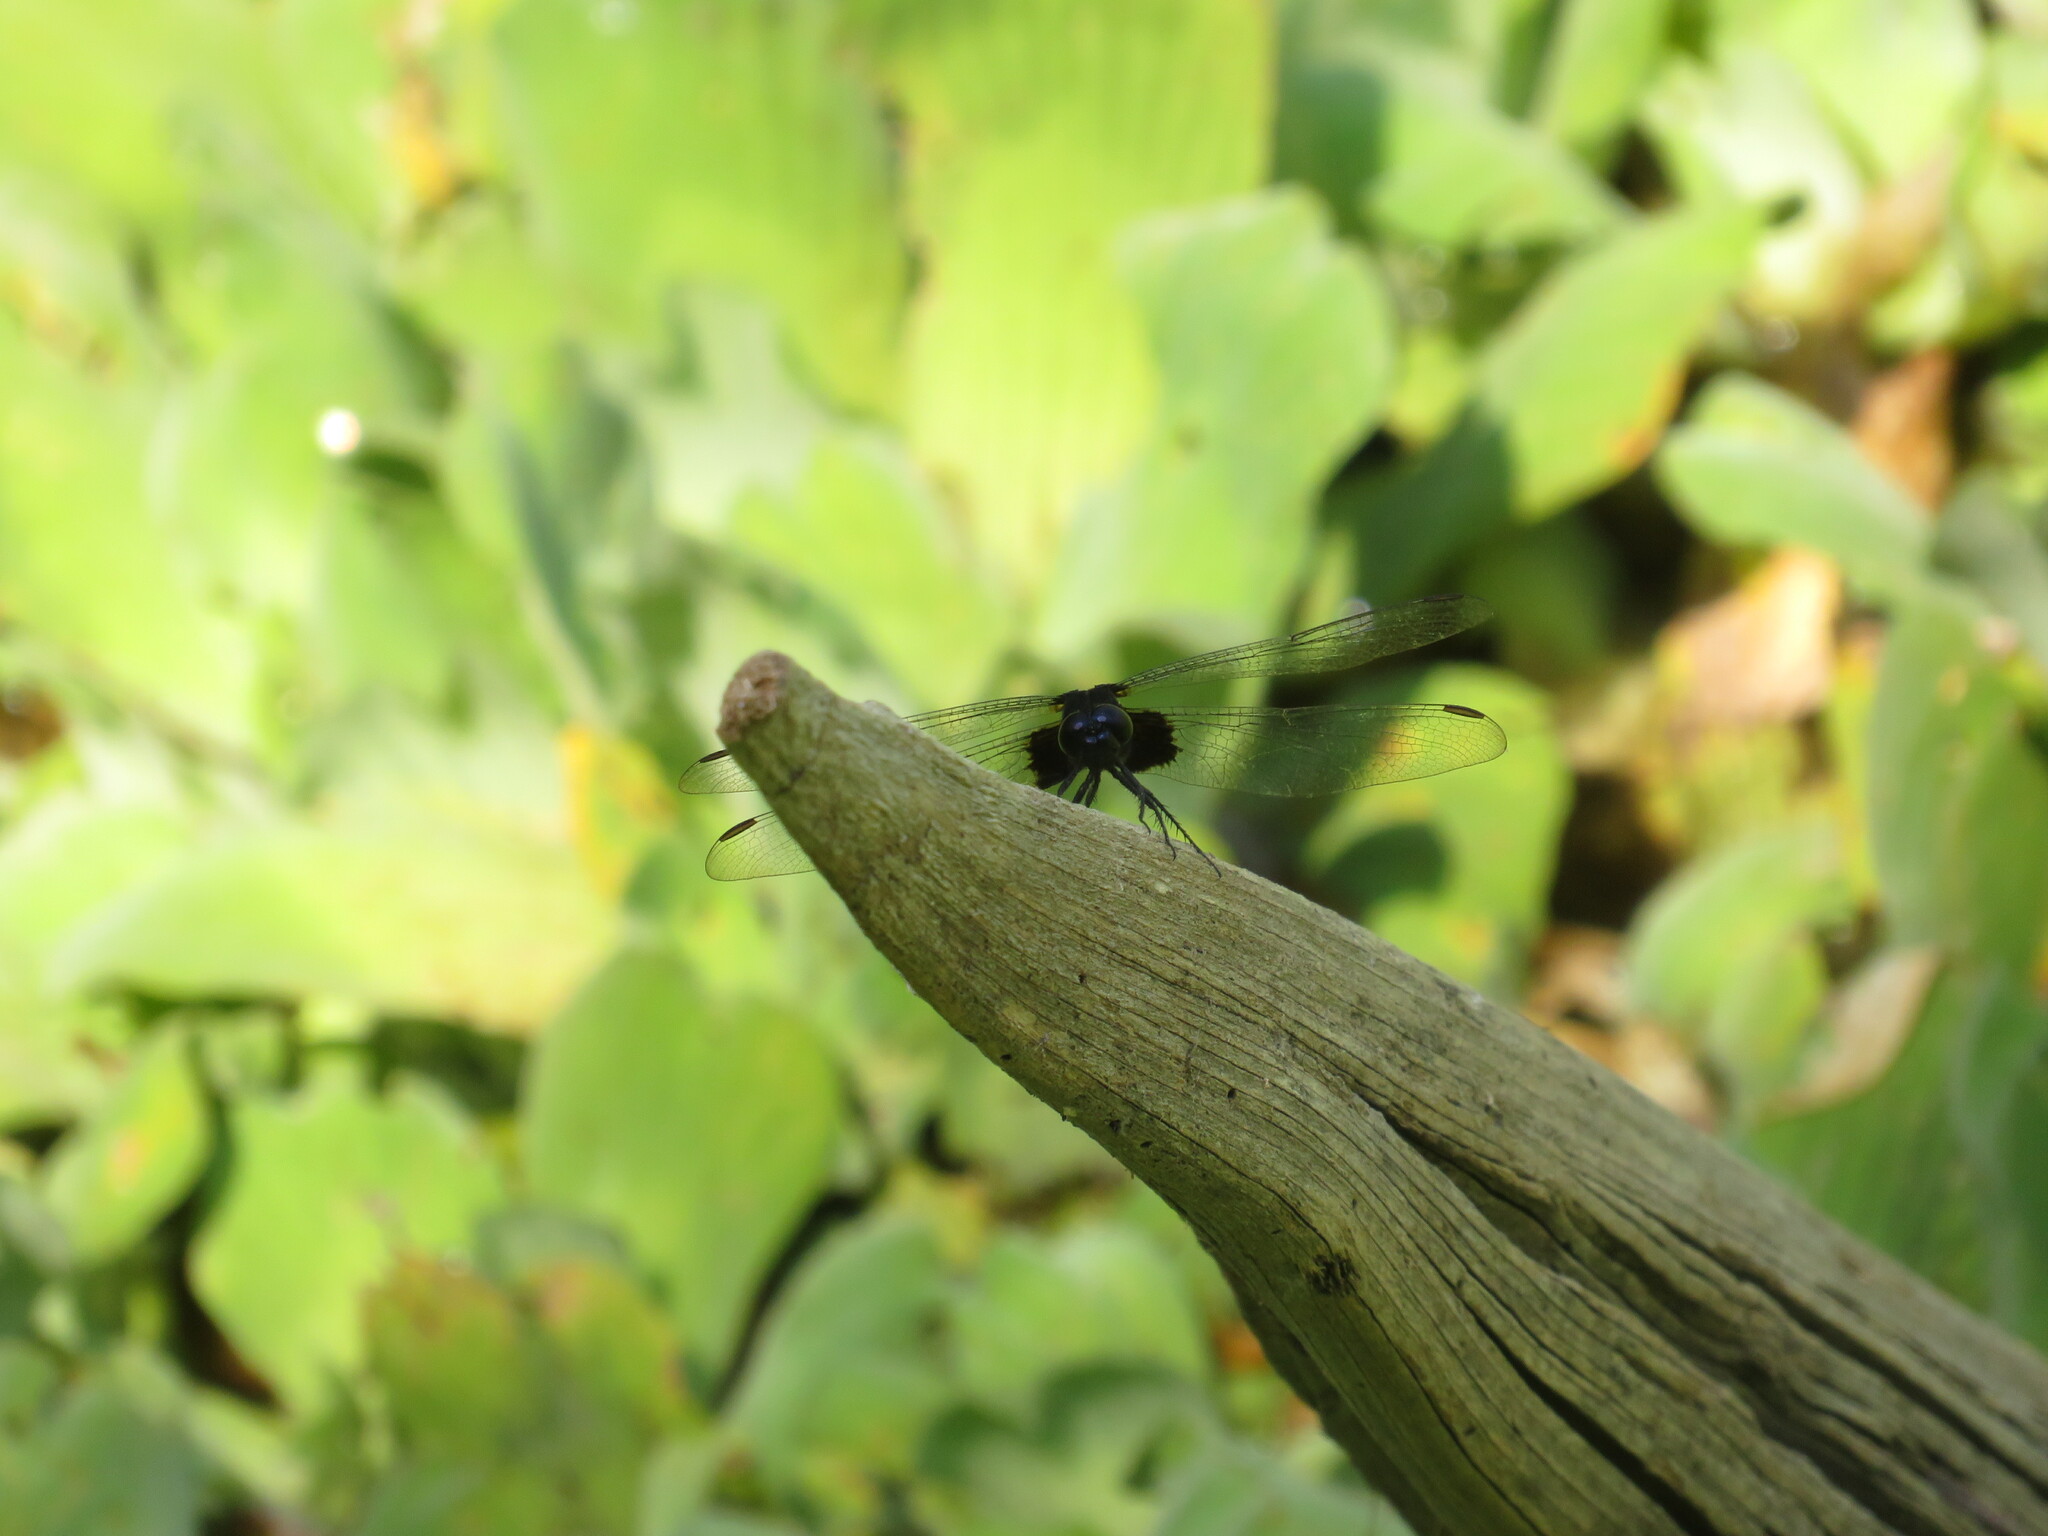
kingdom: Animalia
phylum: Arthropoda
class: Insecta
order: Odonata
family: Libellulidae
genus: Erythemis
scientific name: Erythemis attala
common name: Black pondhawk
